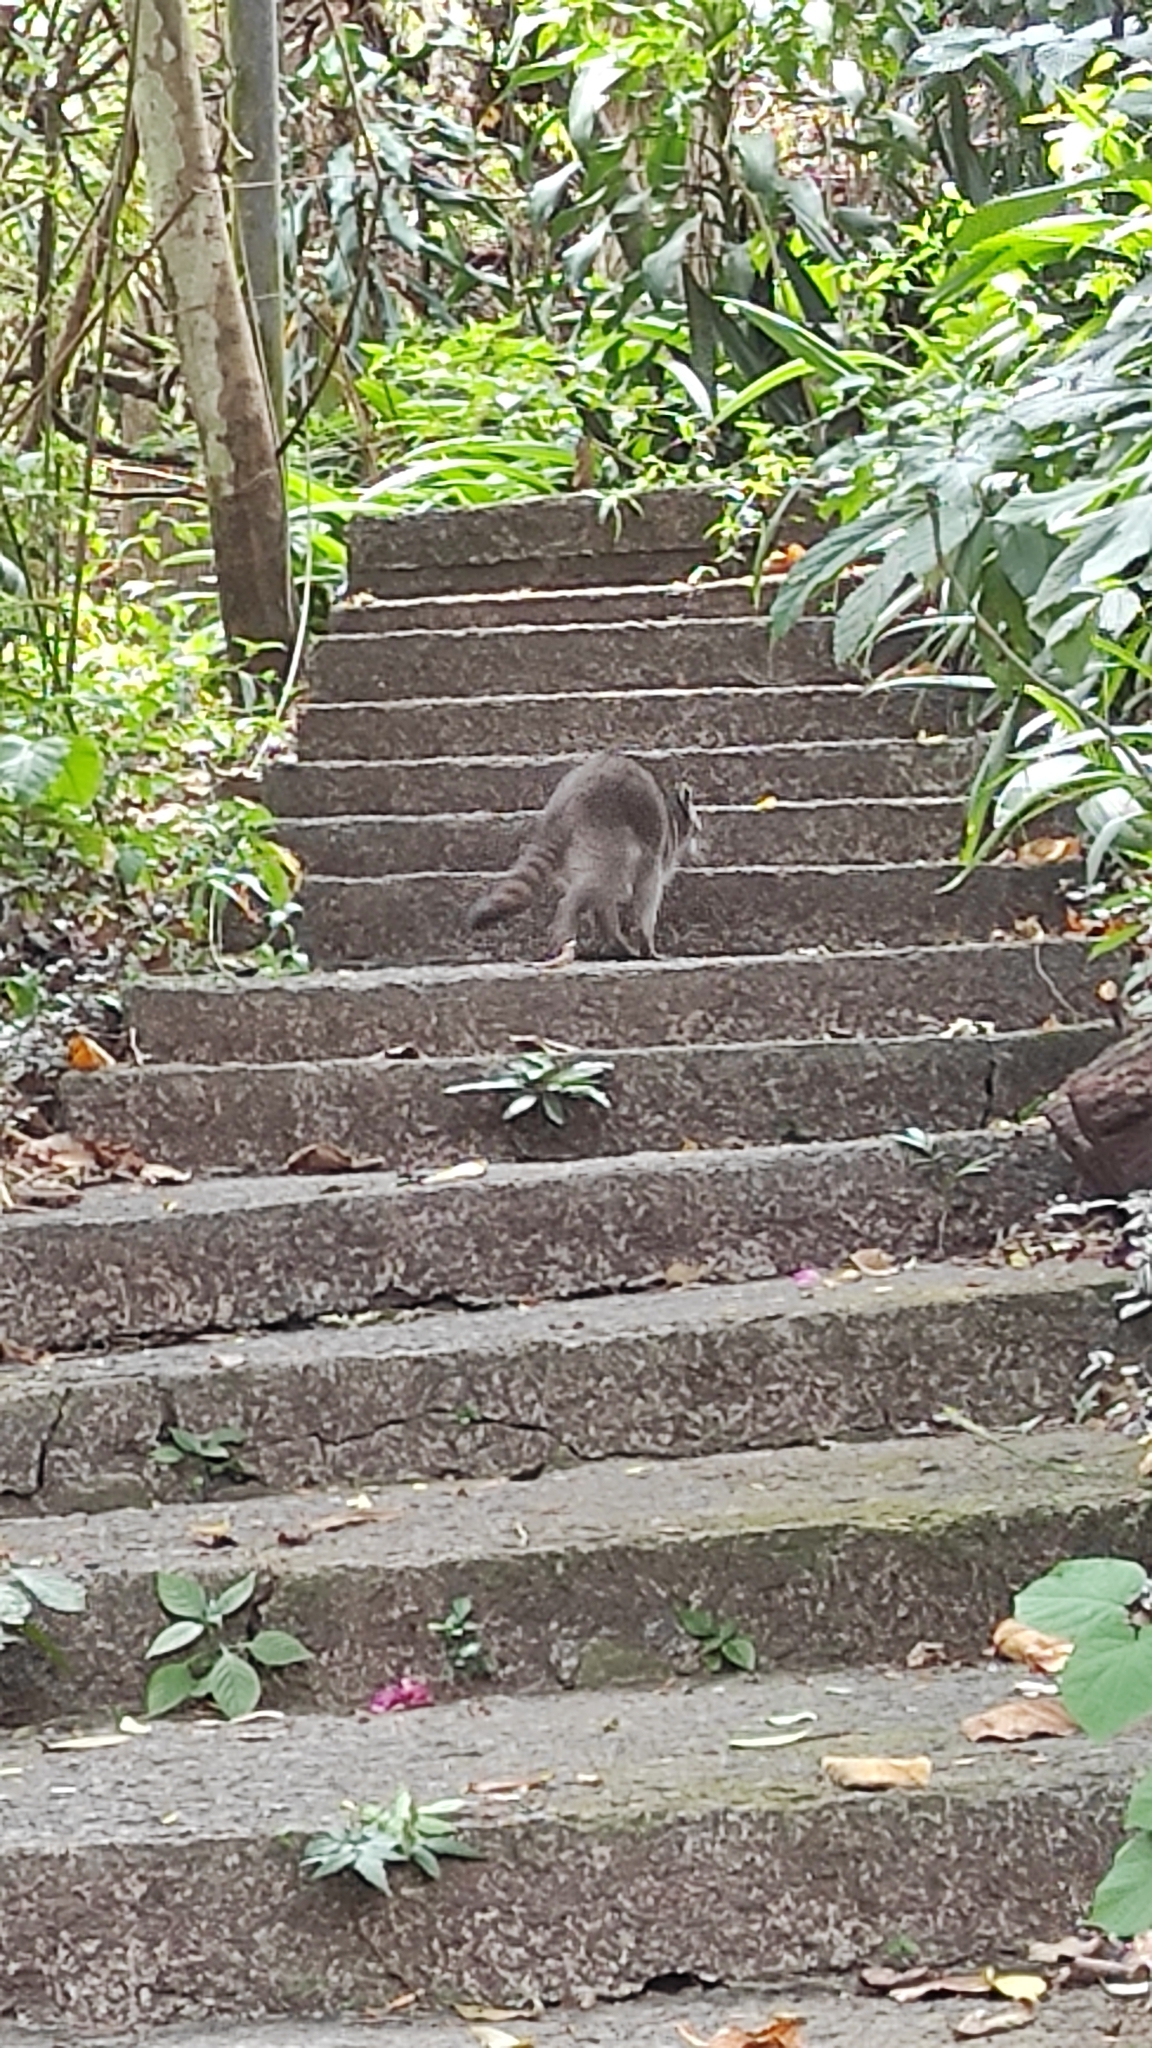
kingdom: Animalia
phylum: Chordata
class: Mammalia
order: Carnivora
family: Procyonidae
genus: Procyon
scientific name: Procyon lotor
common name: Raccoon
